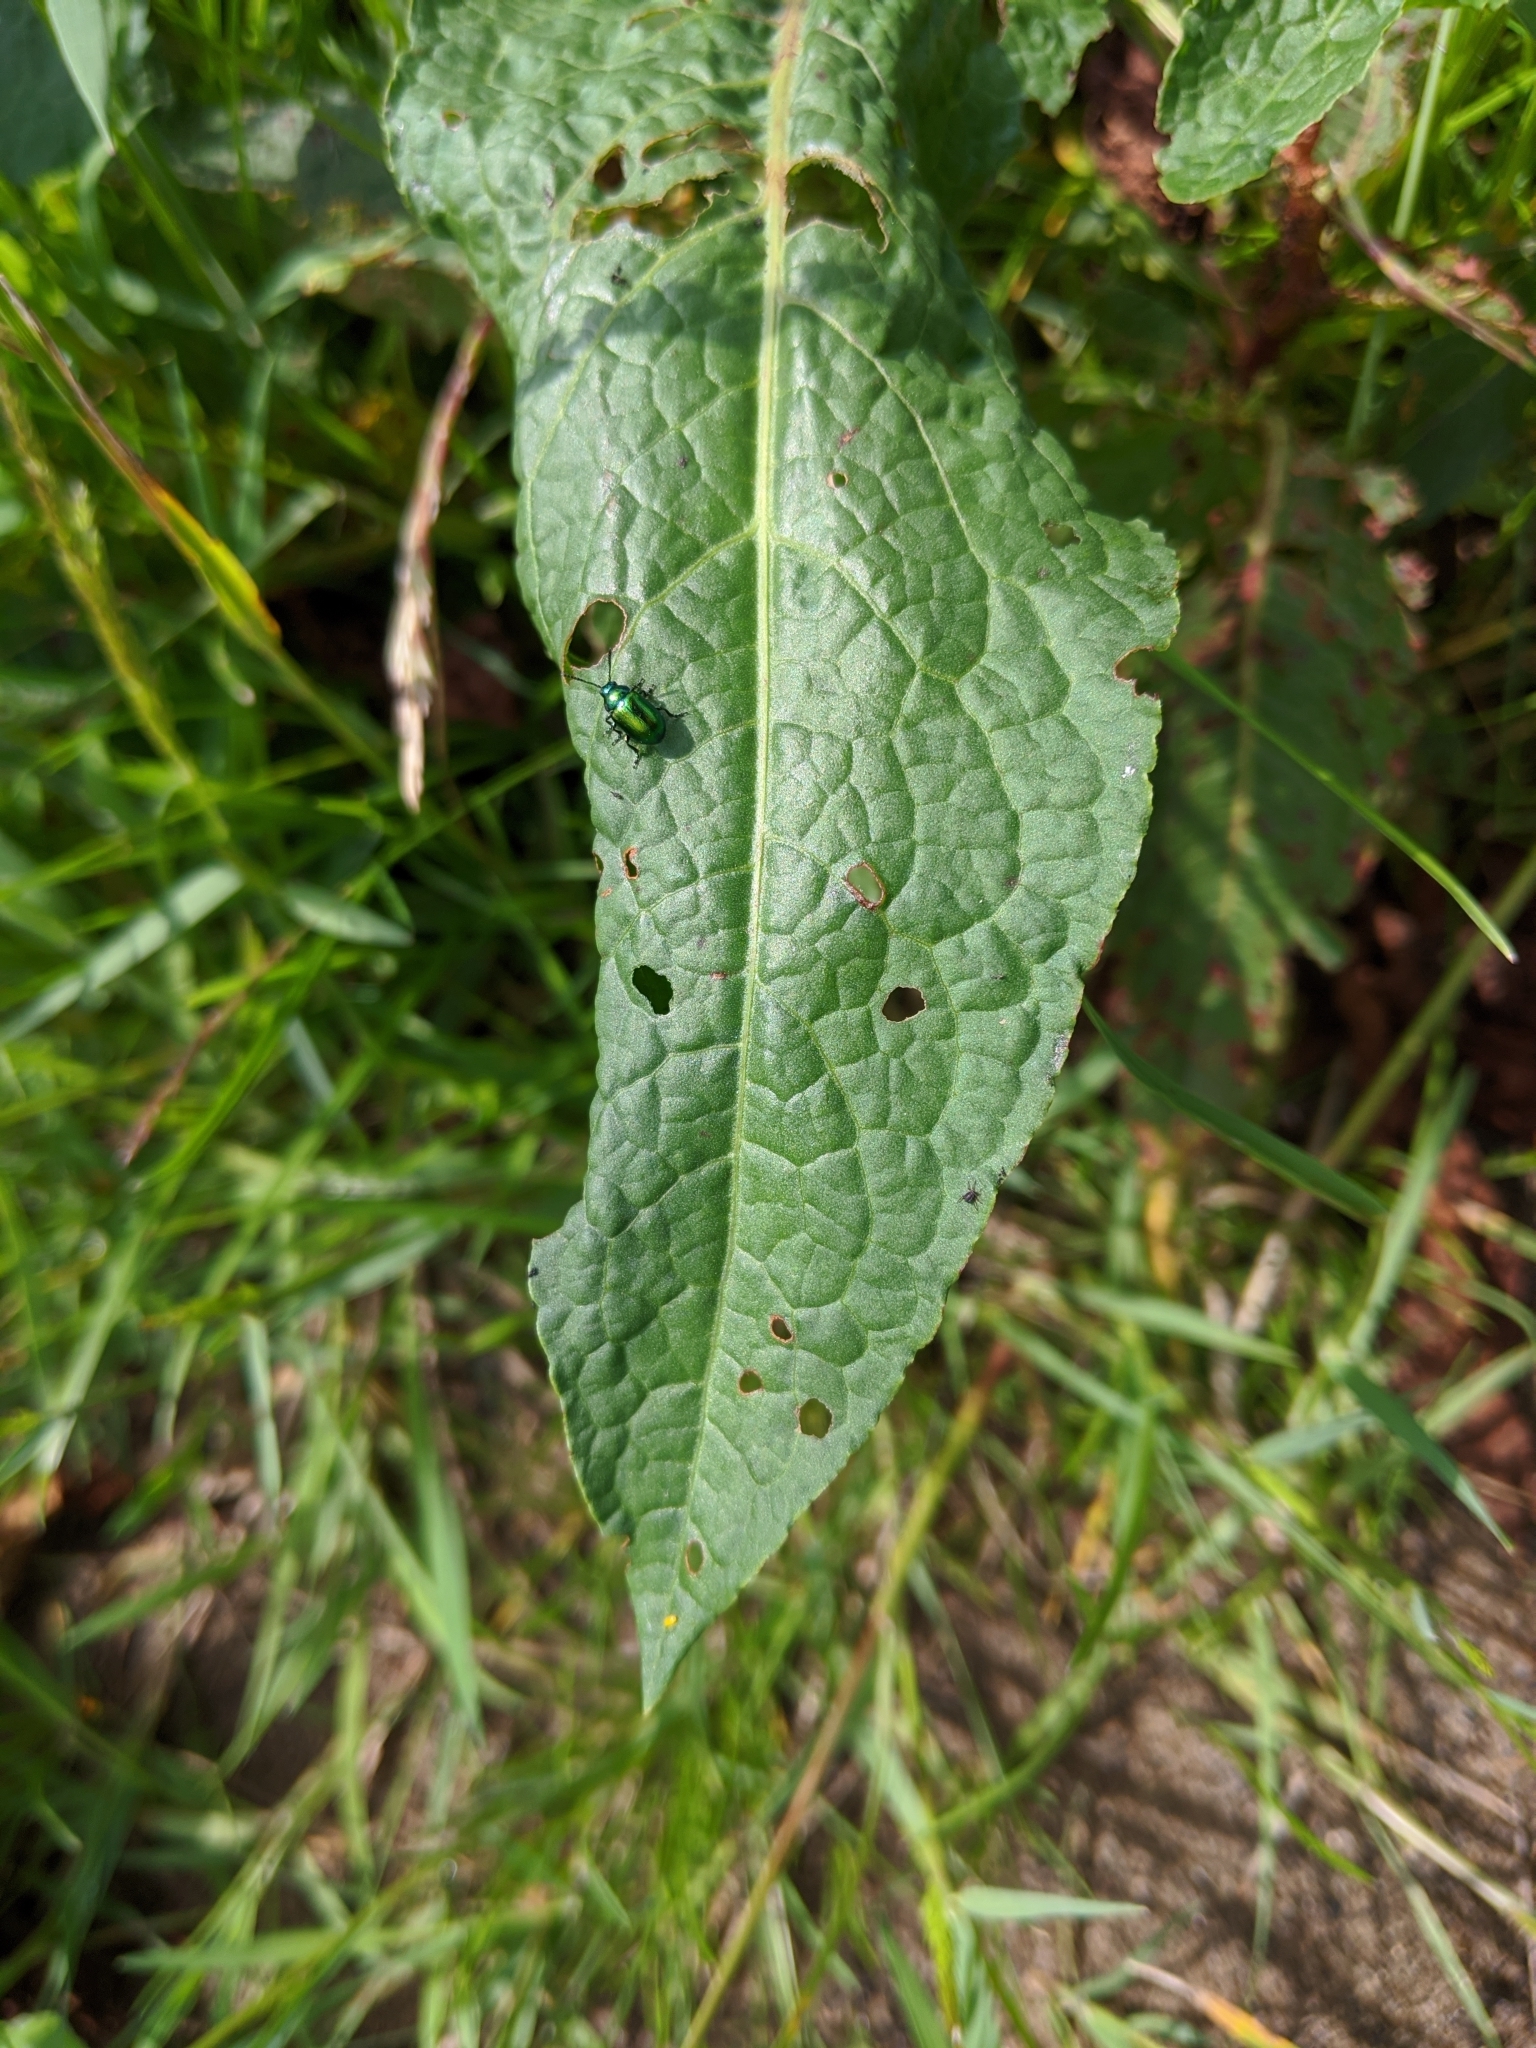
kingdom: Animalia
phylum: Arthropoda
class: Insecta
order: Coleoptera
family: Chrysomelidae
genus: Gastrophysa
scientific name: Gastrophysa viridula
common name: Green dock beetle
